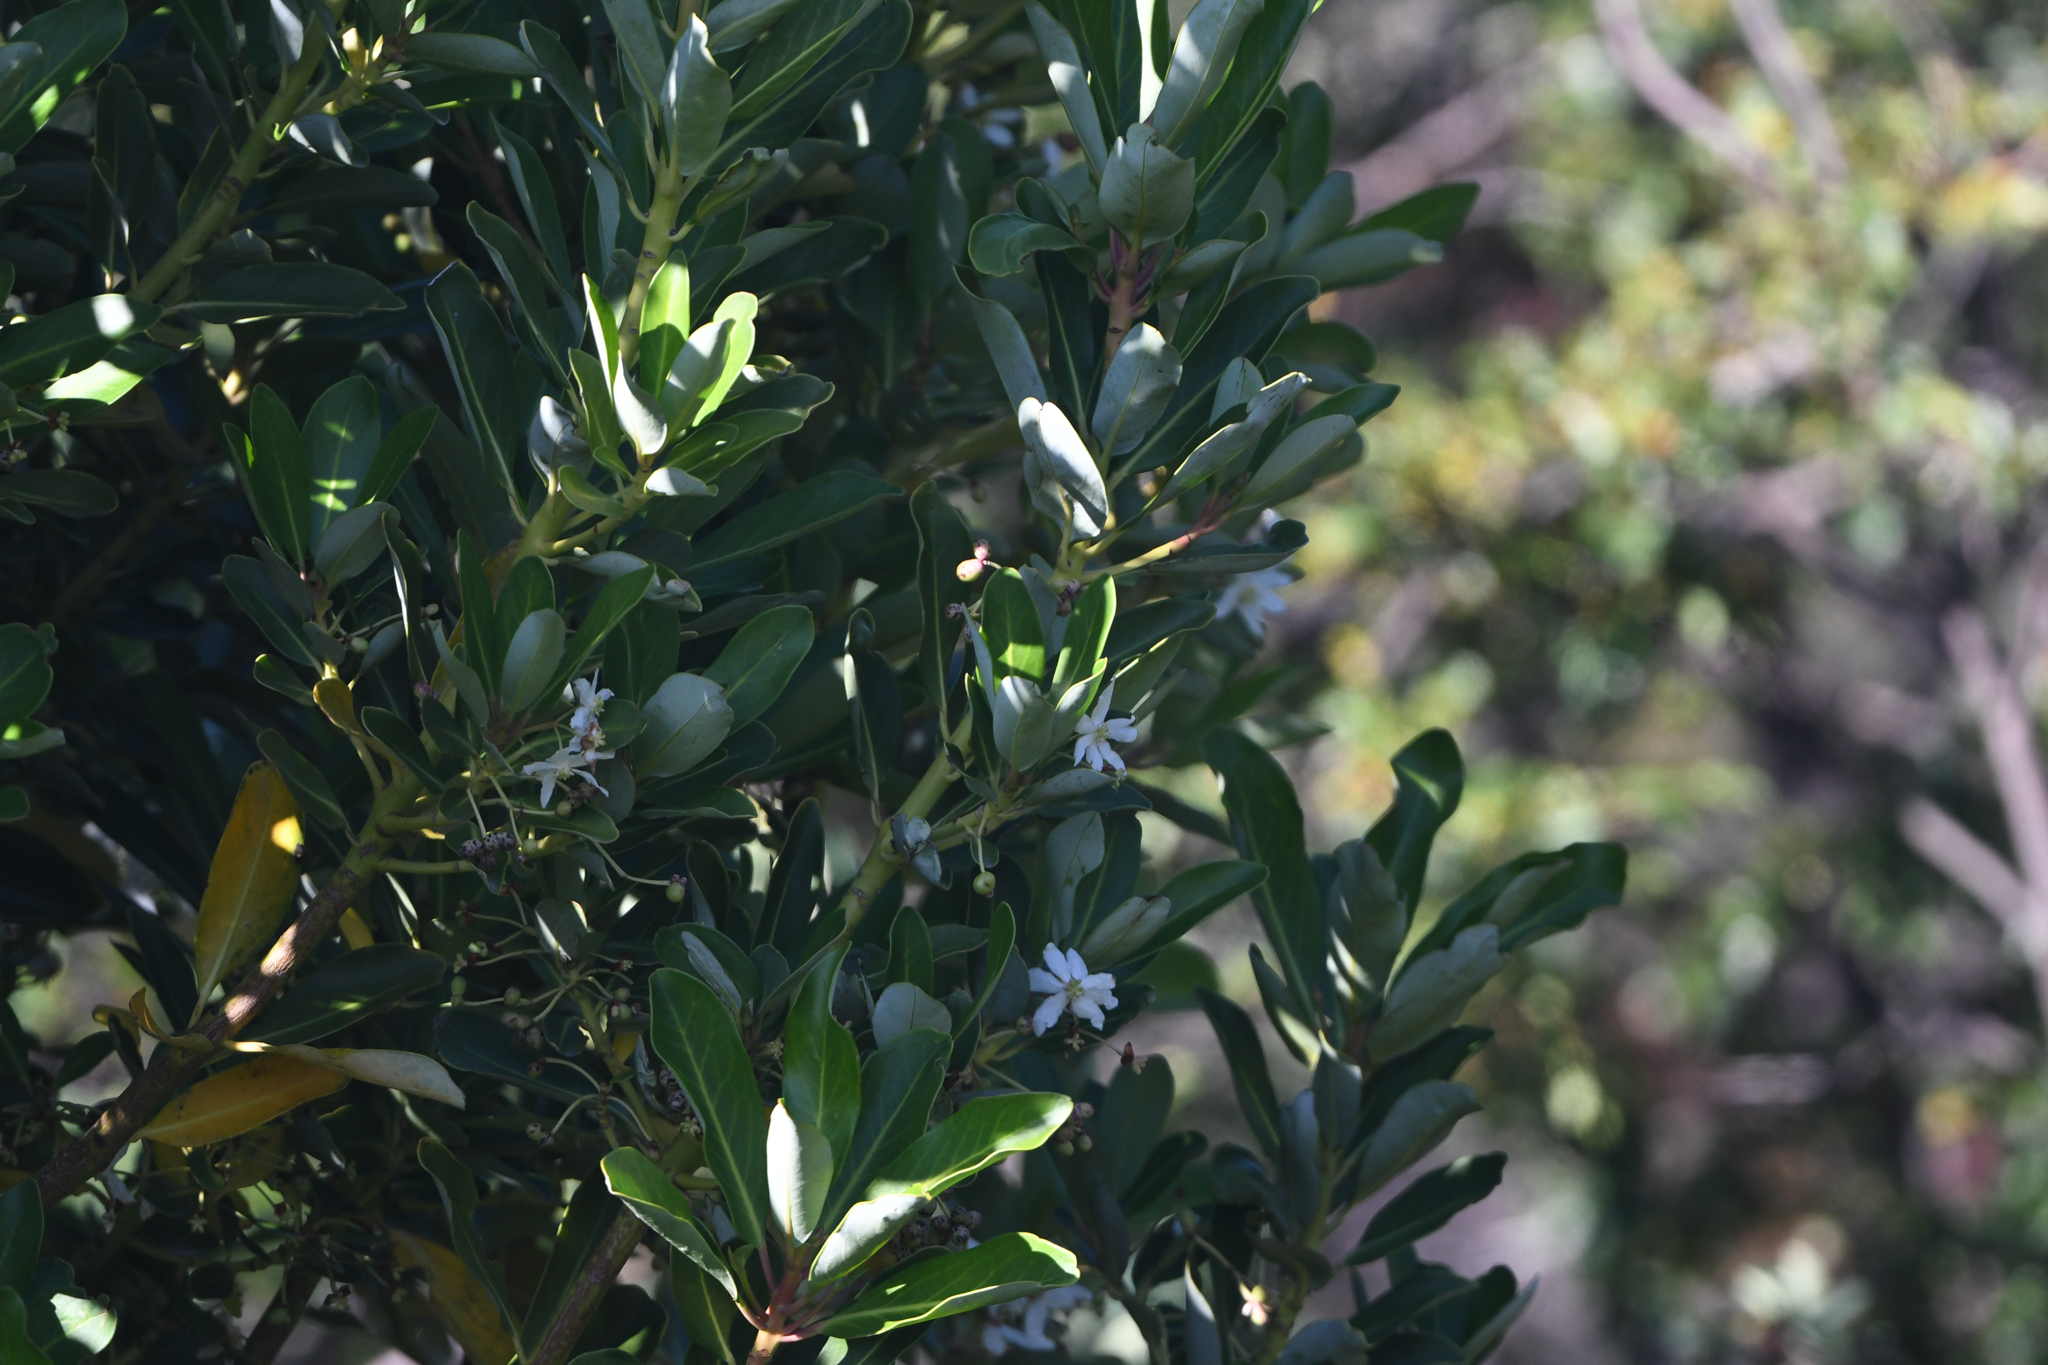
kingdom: Plantae
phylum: Tracheophyta
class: Magnoliopsida
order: Canellales
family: Winteraceae
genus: Drimys
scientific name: Drimys winteri
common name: Winter's-bark
